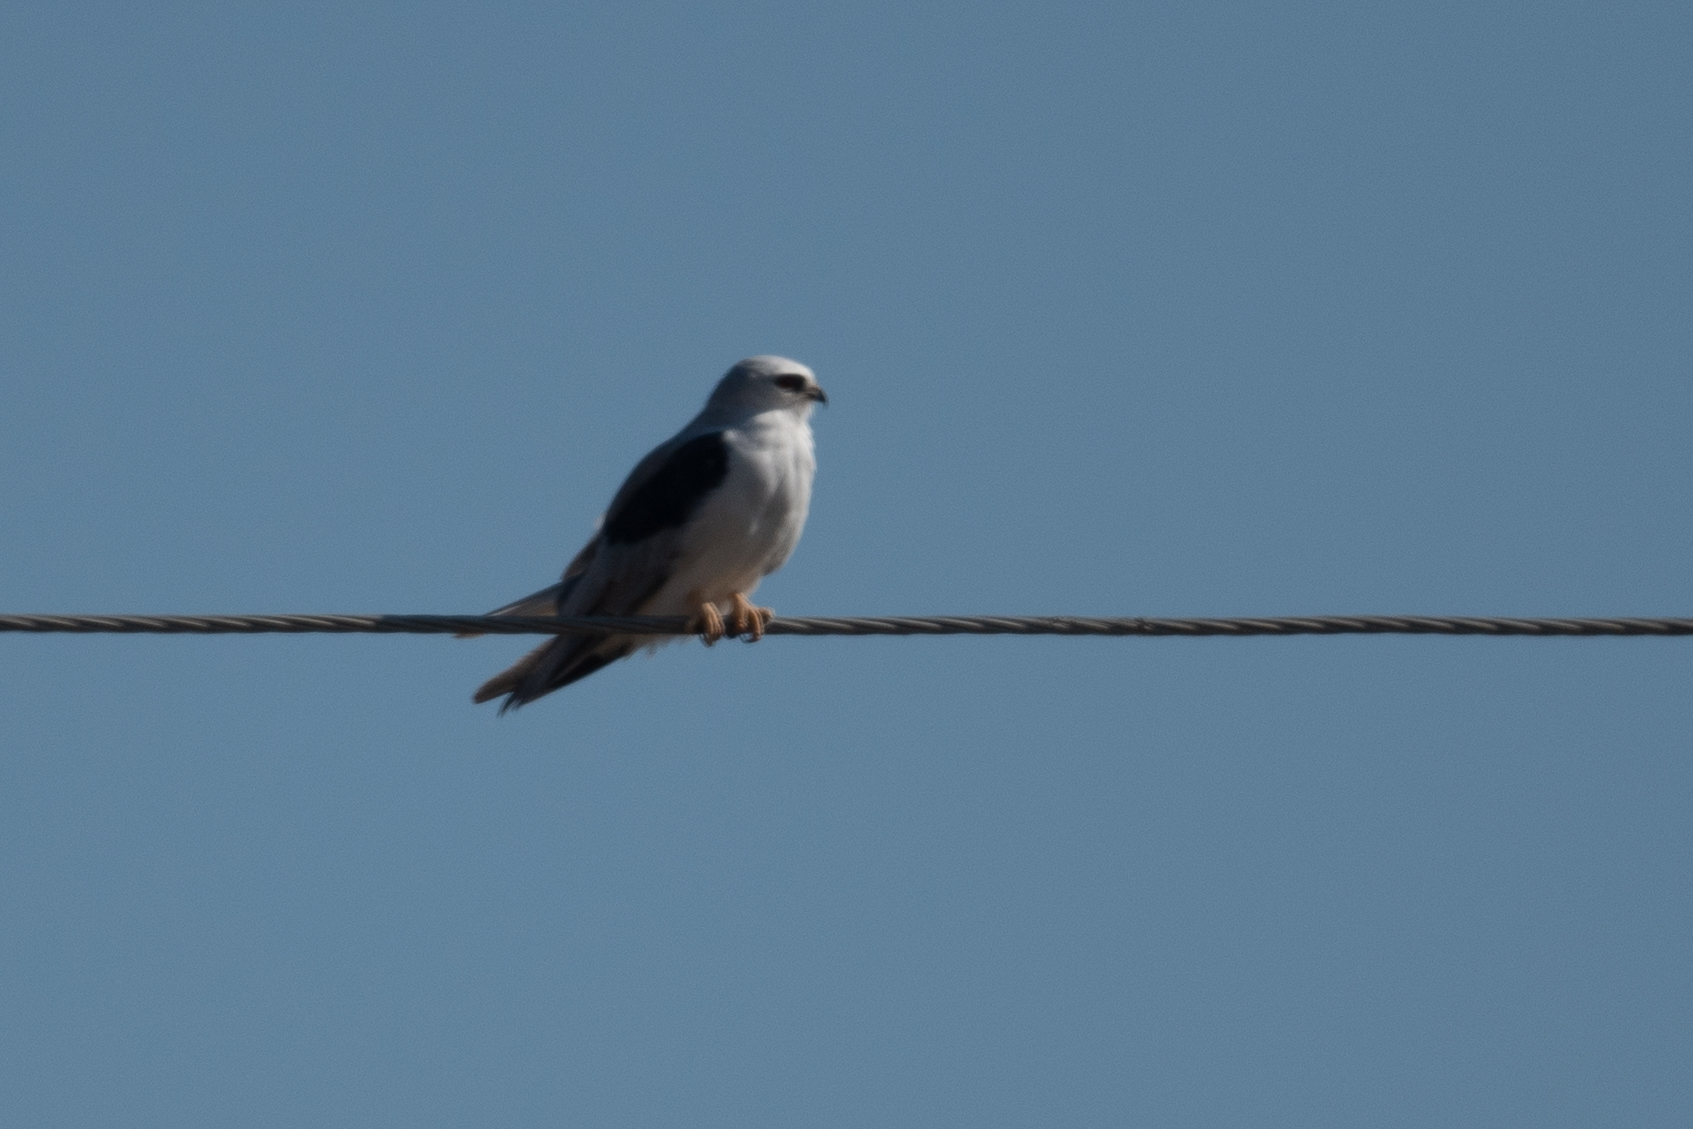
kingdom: Animalia
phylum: Chordata
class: Aves
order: Accipitriformes
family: Accipitridae
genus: Elanus
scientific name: Elanus leucurus
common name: White-tailed kite
